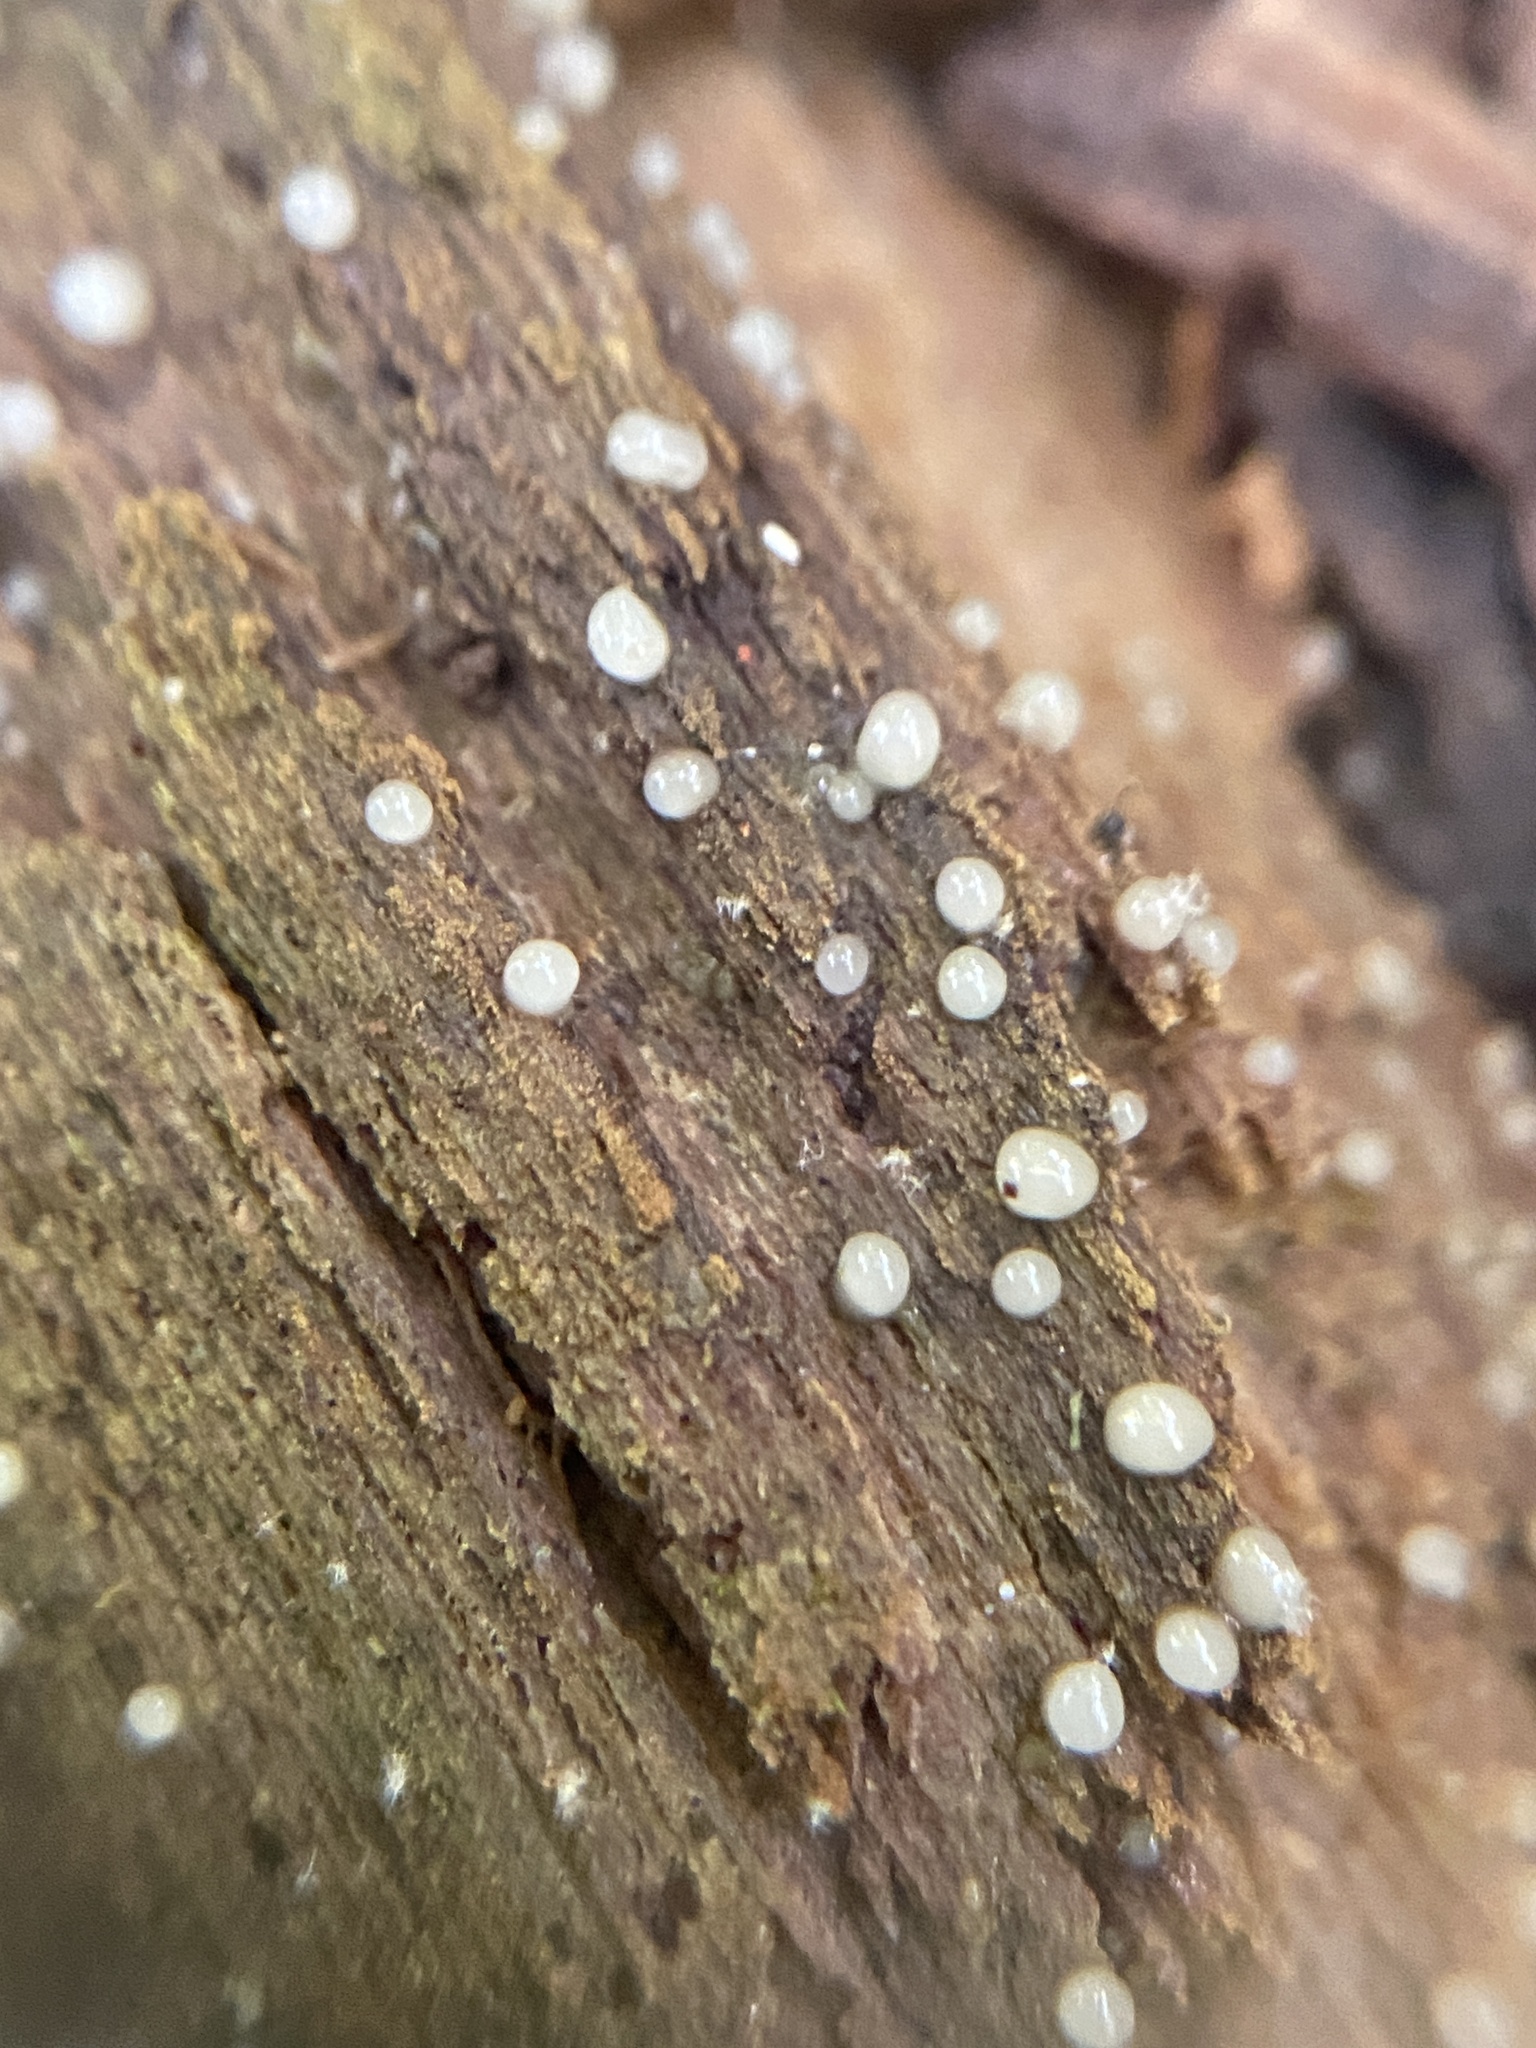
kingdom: Fungi
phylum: Basidiomycota
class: Atractiellomycetes
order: Atractiellales
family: Phleogenaceae
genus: Helicogloea
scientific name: Helicogloea compressa
